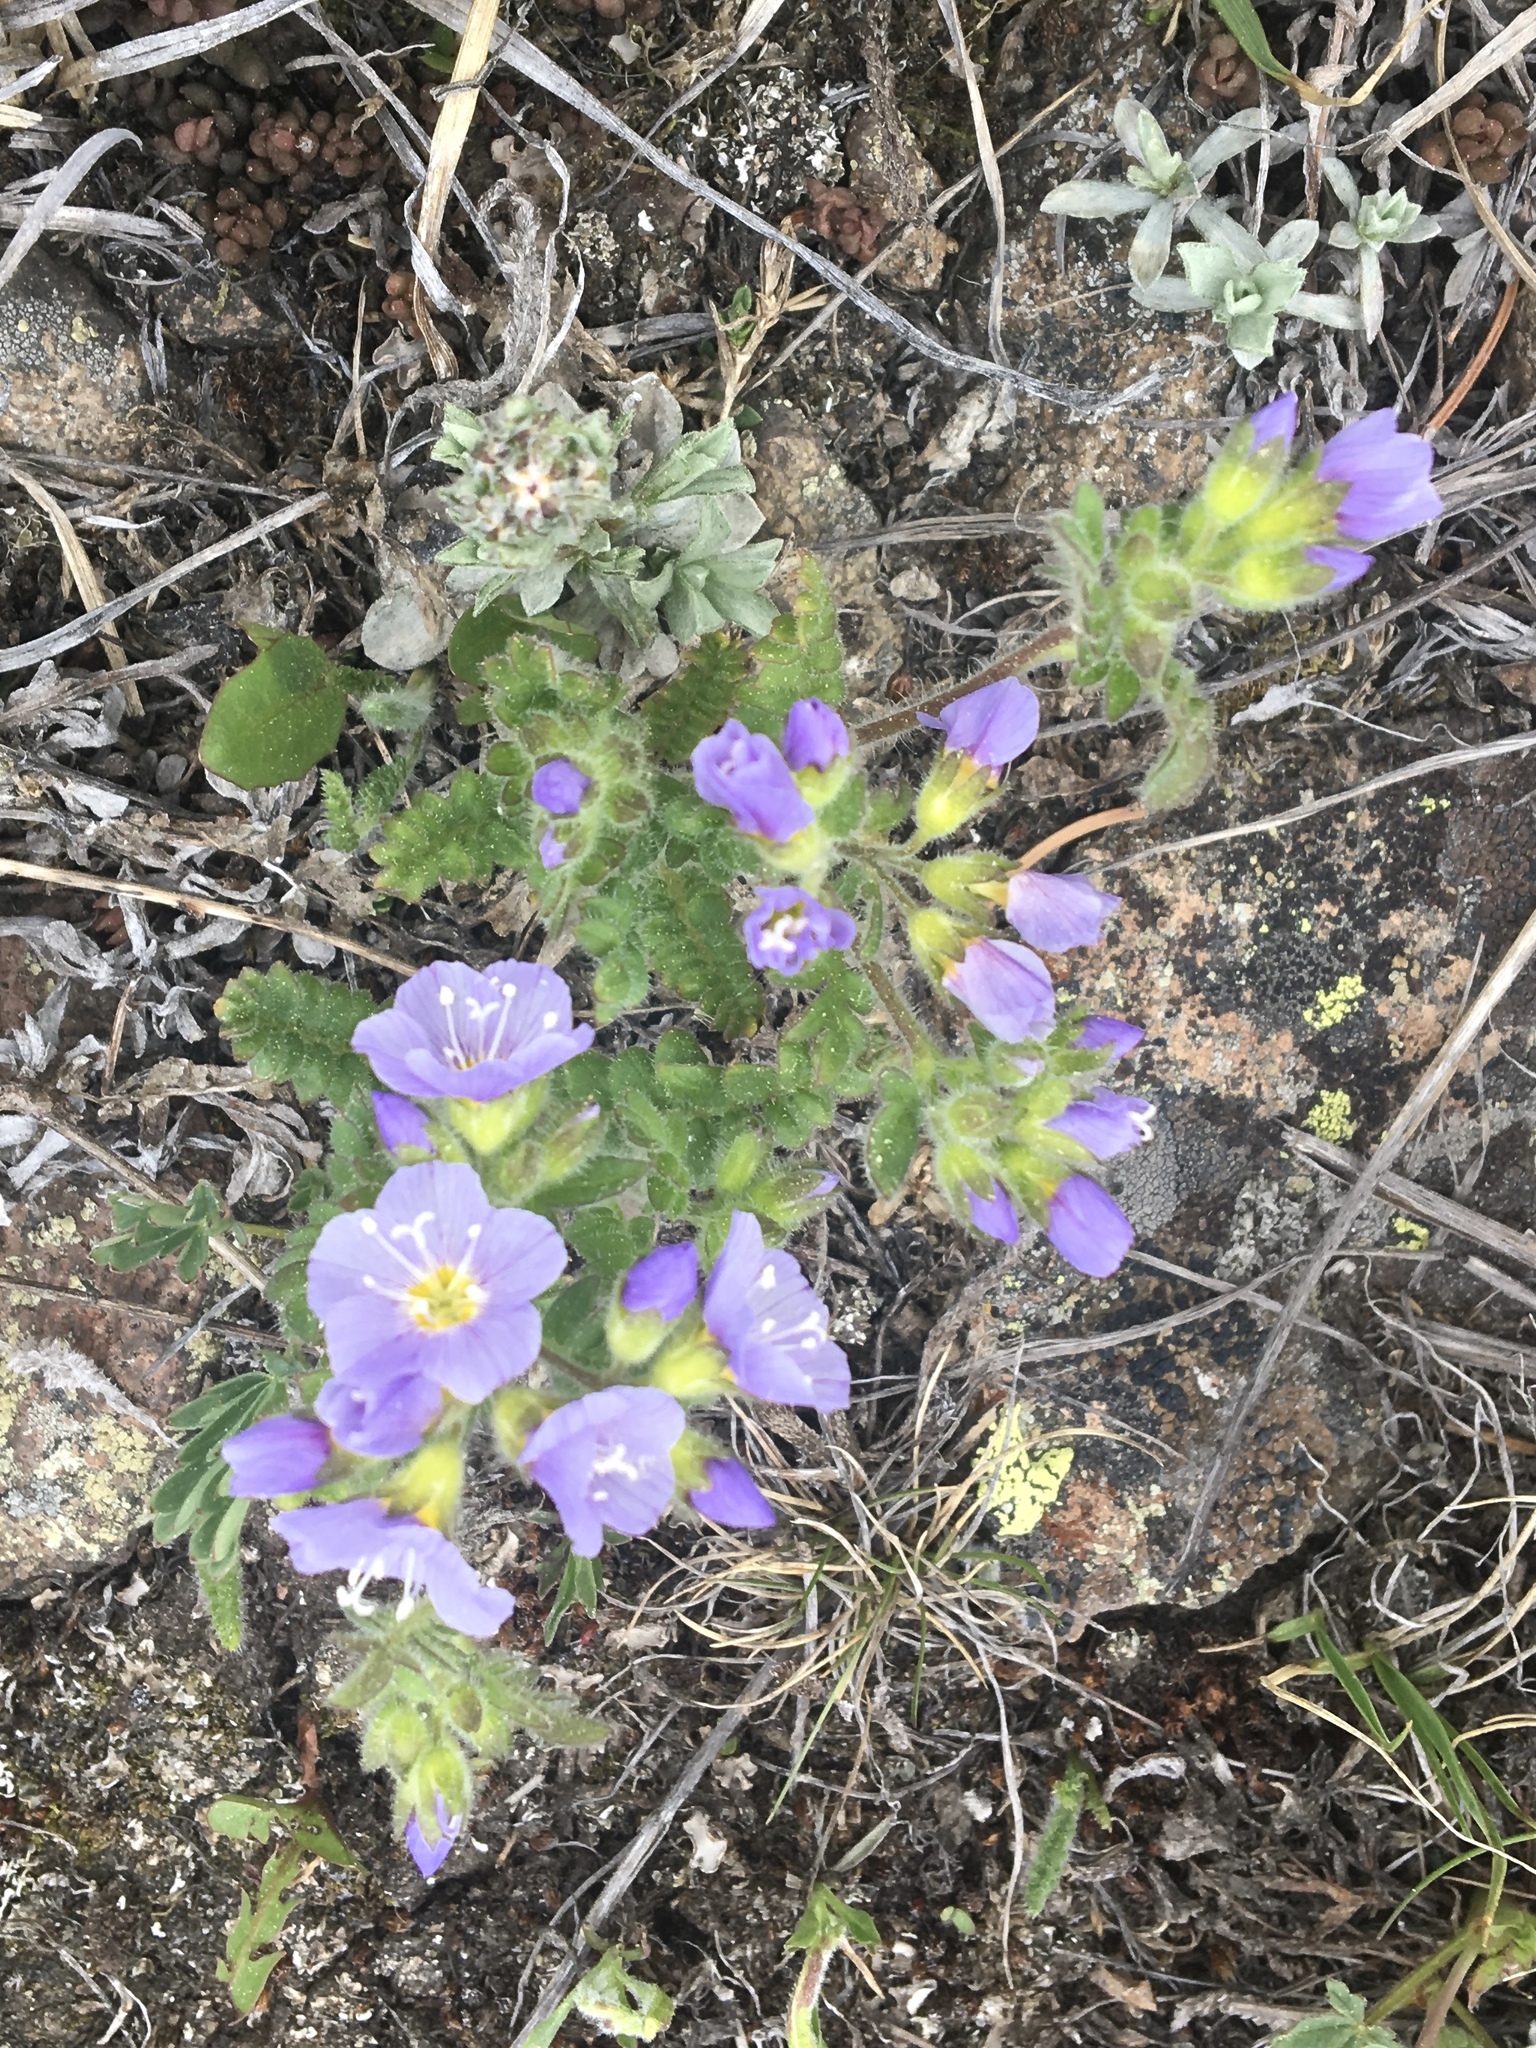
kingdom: Plantae
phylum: Tracheophyta
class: Magnoliopsida
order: Ericales
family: Polemoniaceae
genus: Polemonium
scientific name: Polemonium pulcherrimum
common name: Short jacob's-ladder
